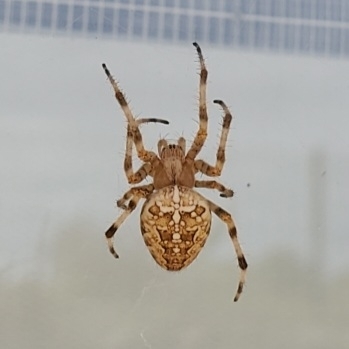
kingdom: Animalia
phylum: Arthropoda
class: Arachnida
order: Araneae
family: Araneidae
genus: Araneus
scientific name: Araneus diadematus
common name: Cross orbweaver
